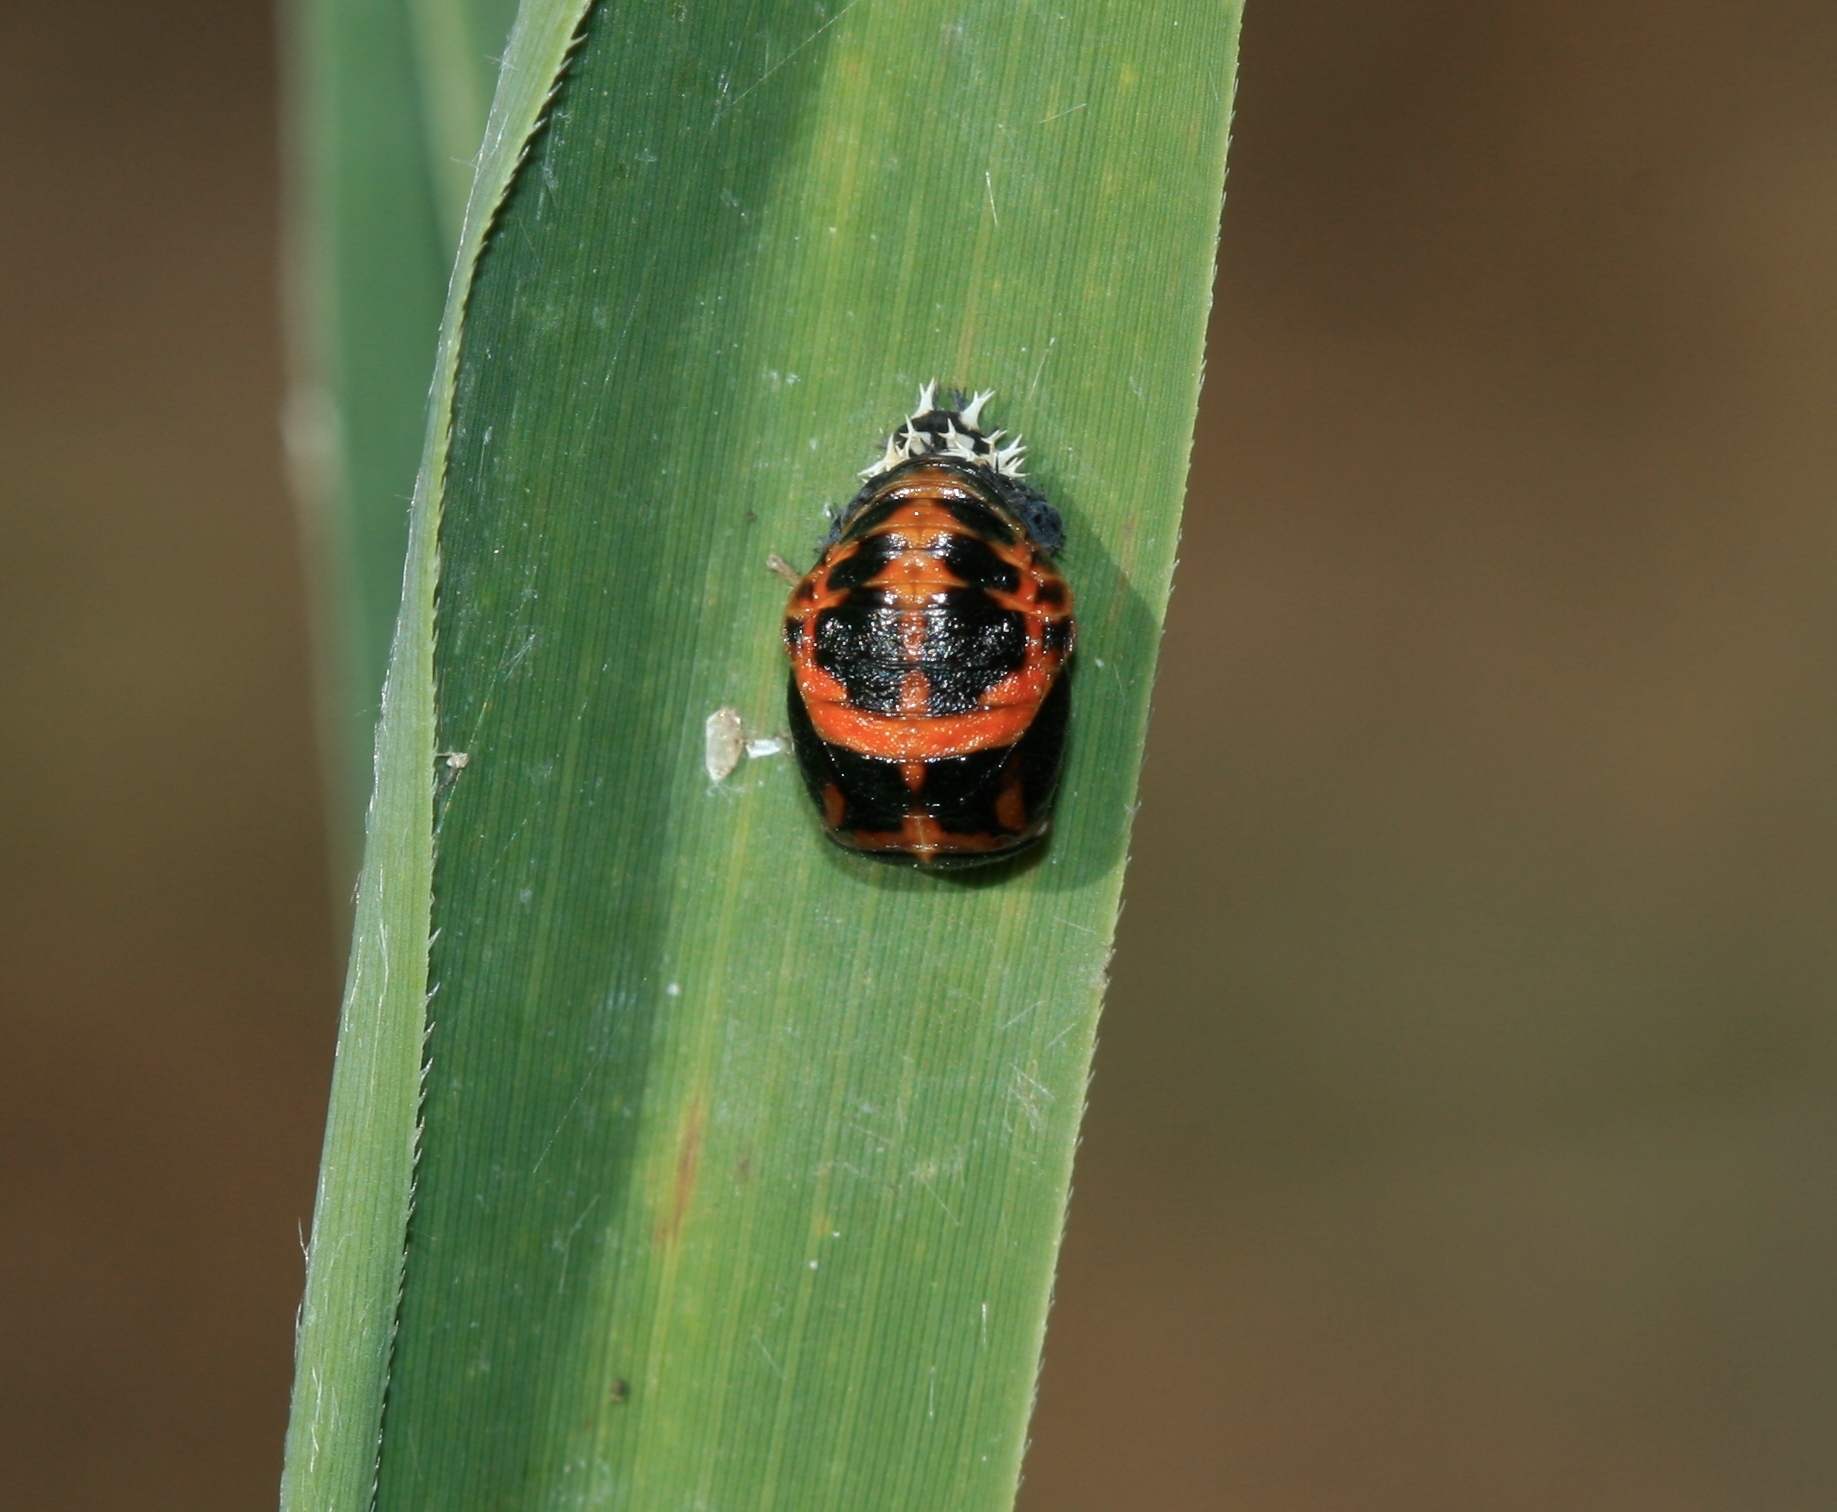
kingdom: Animalia
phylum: Arthropoda
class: Insecta
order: Coleoptera
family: Coccinellidae
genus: Harmonia
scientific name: Harmonia axyridis
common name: Harlequin ladybird
